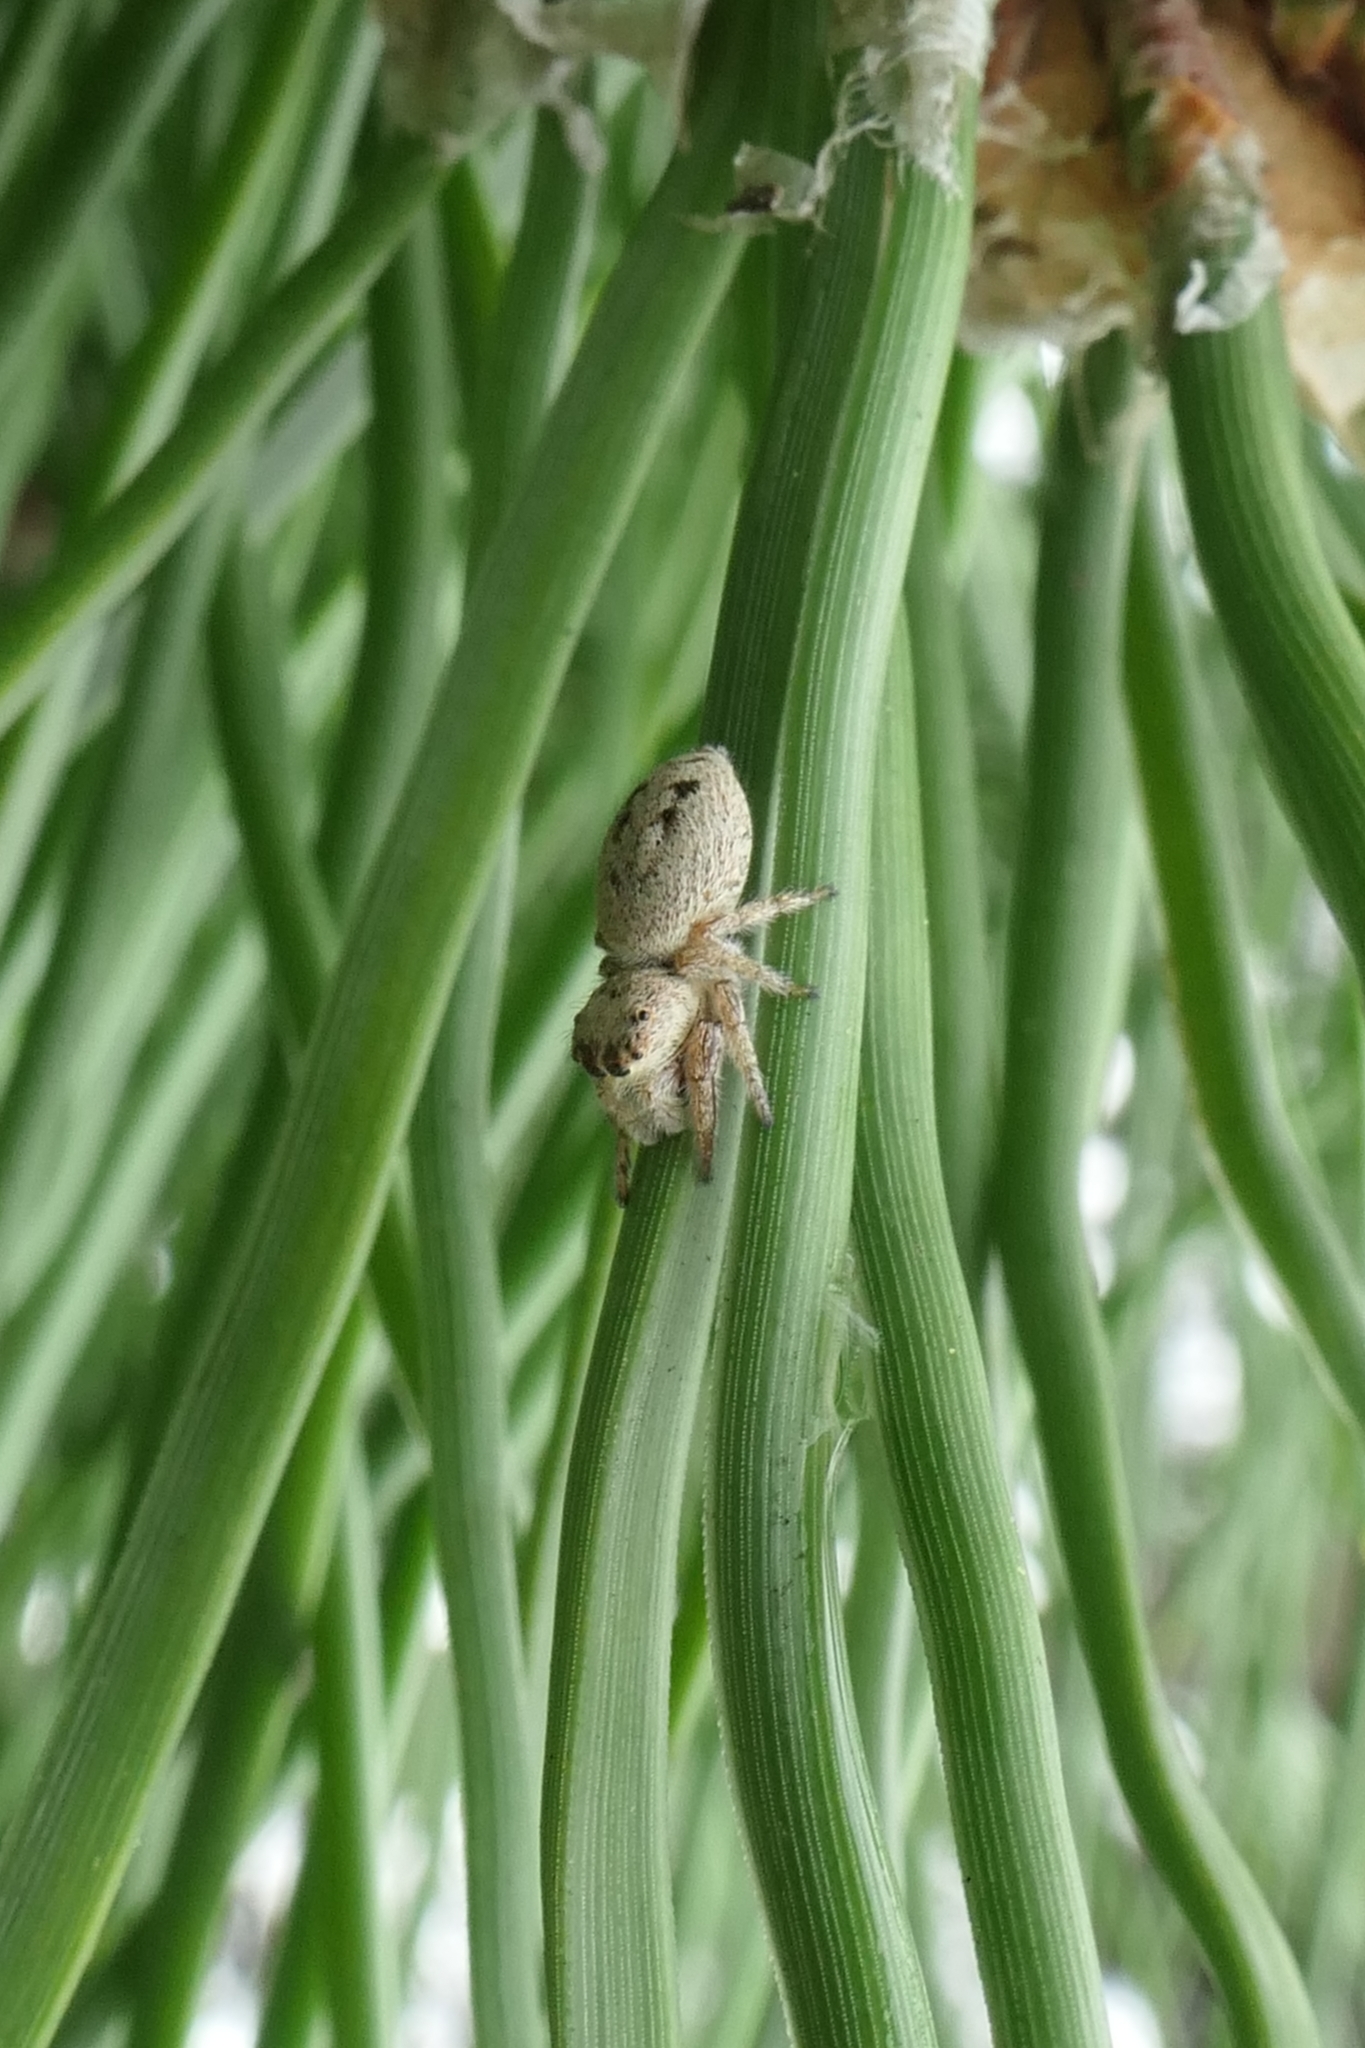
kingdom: Animalia
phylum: Arthropoda
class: Arachnida
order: Araneae
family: Salticidae
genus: Opisthoncus
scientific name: Opisthoncus polyphemus
